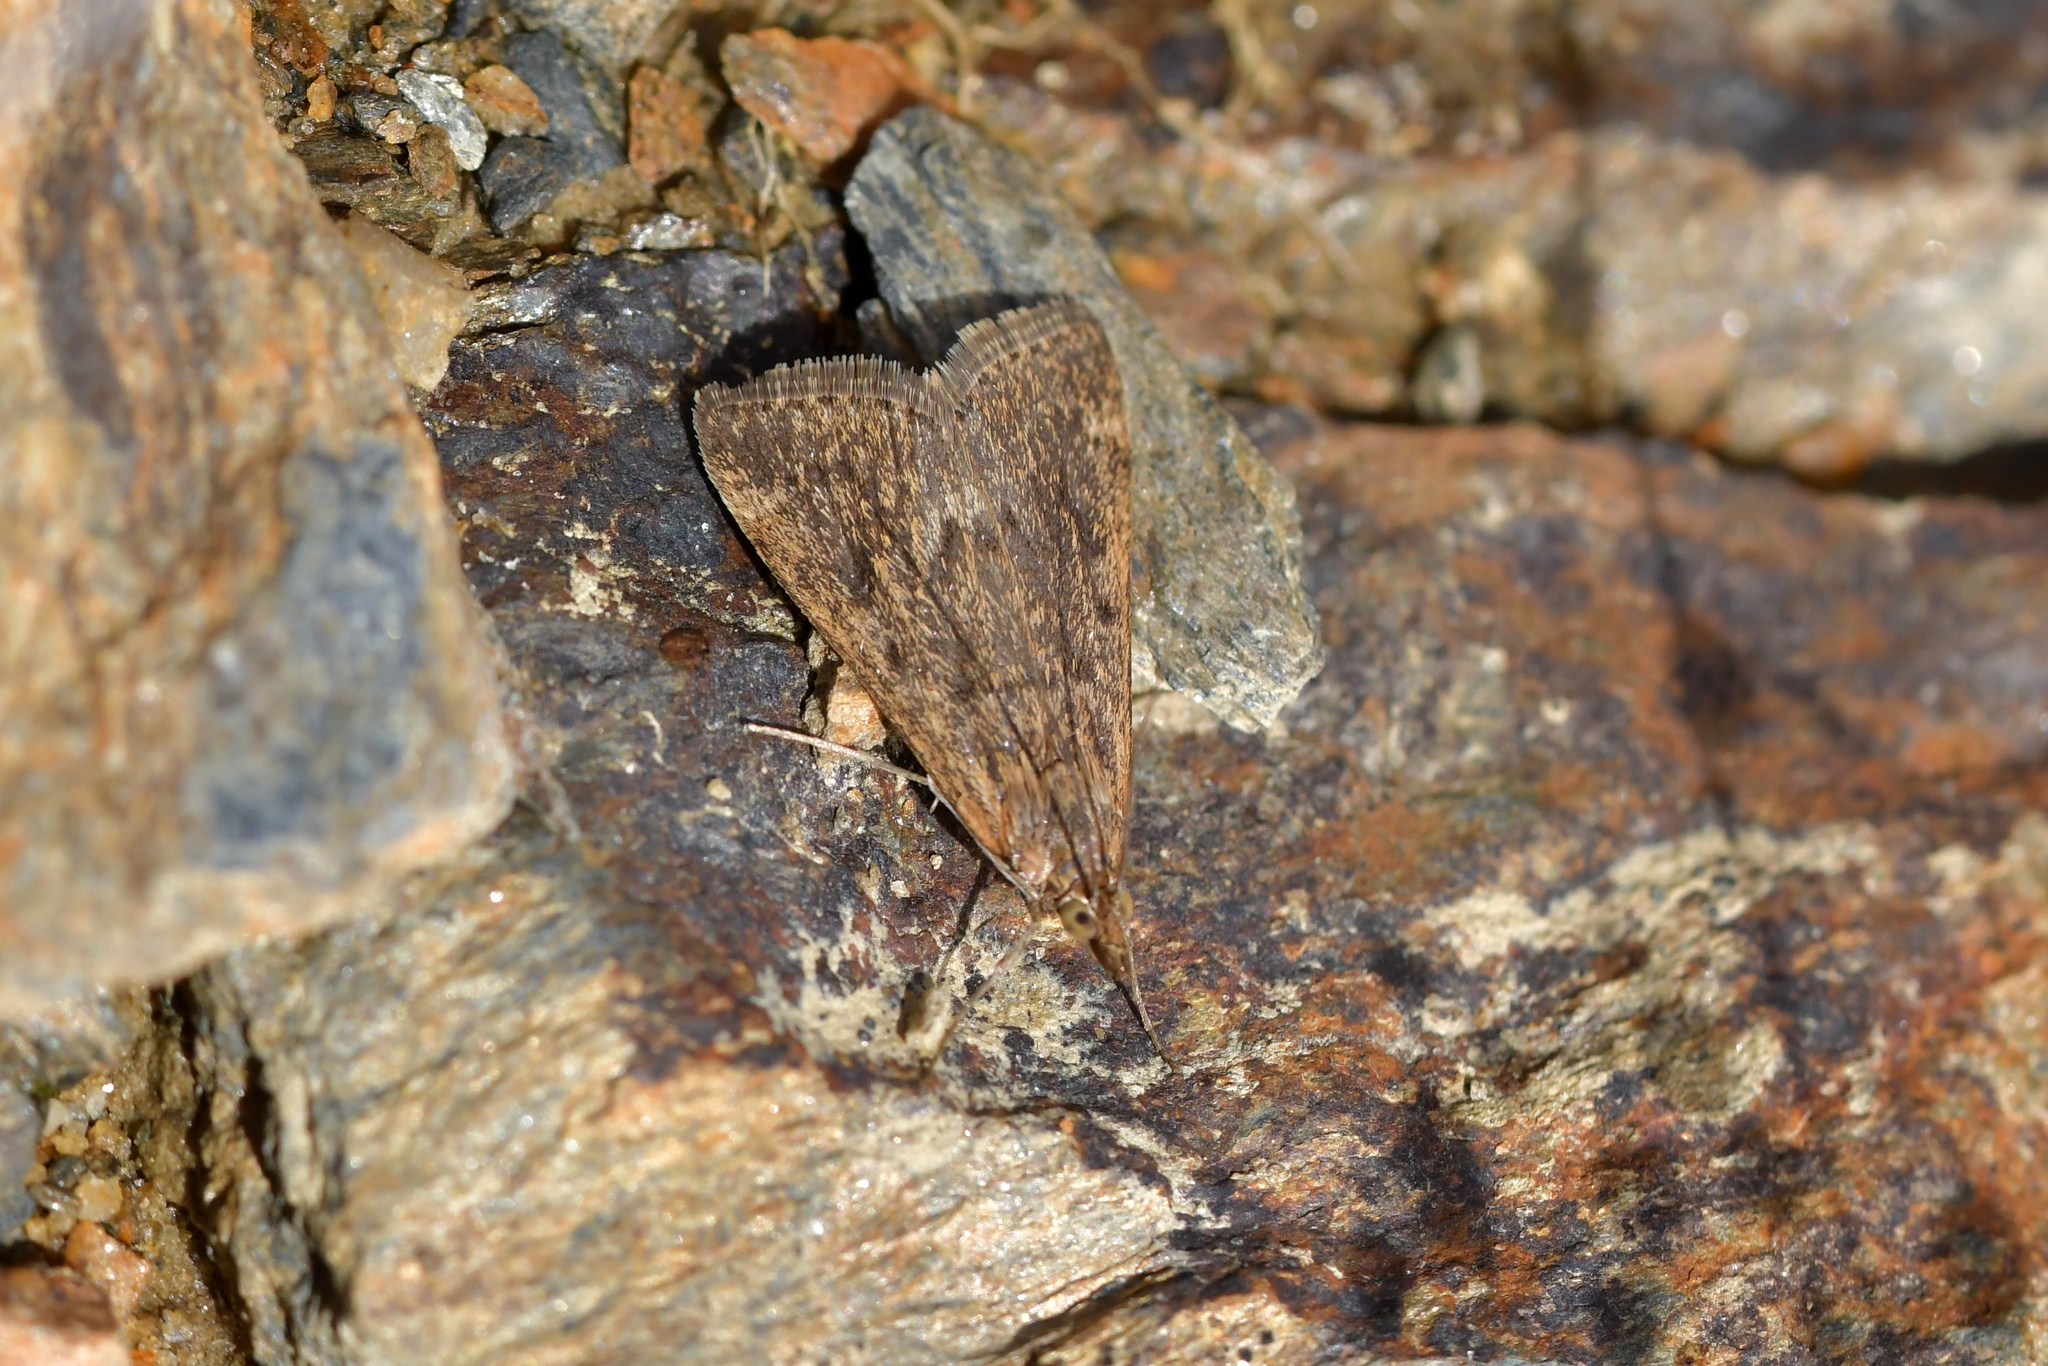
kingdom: Animalia
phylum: Arthropoda
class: Insecta
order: Lepidoptera
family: Crambidae
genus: Achyra
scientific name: Achyra affinitalis
